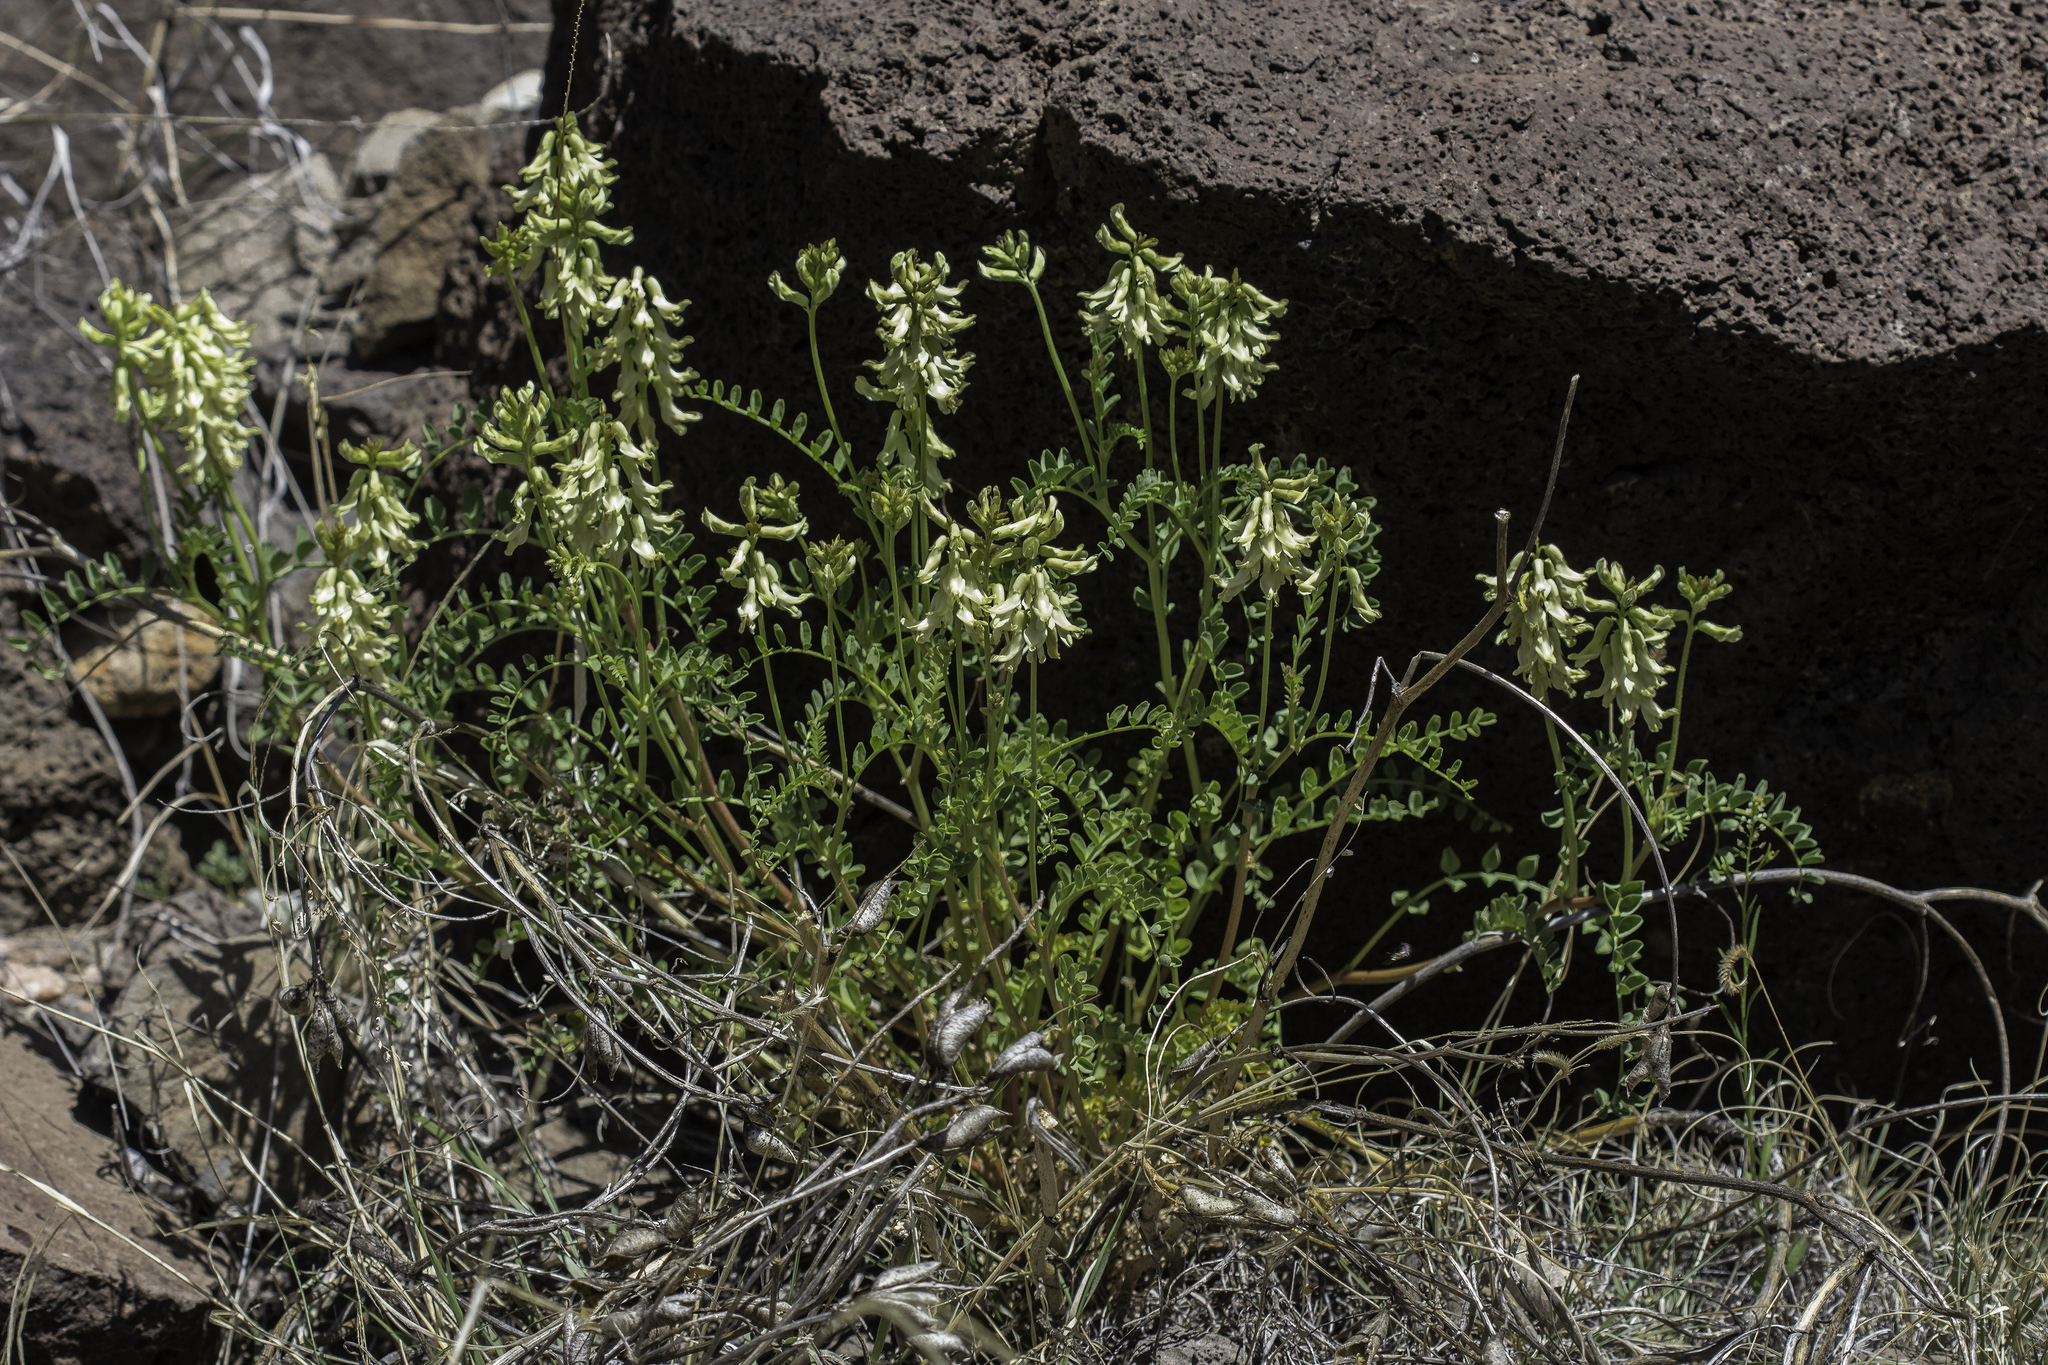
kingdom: Plantae
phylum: Tracheophyta
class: Magnoliopsida
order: Fabales
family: Fabaceae
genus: Astragalus
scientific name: Astragalus praelongus
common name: Stinking milk-vetch
